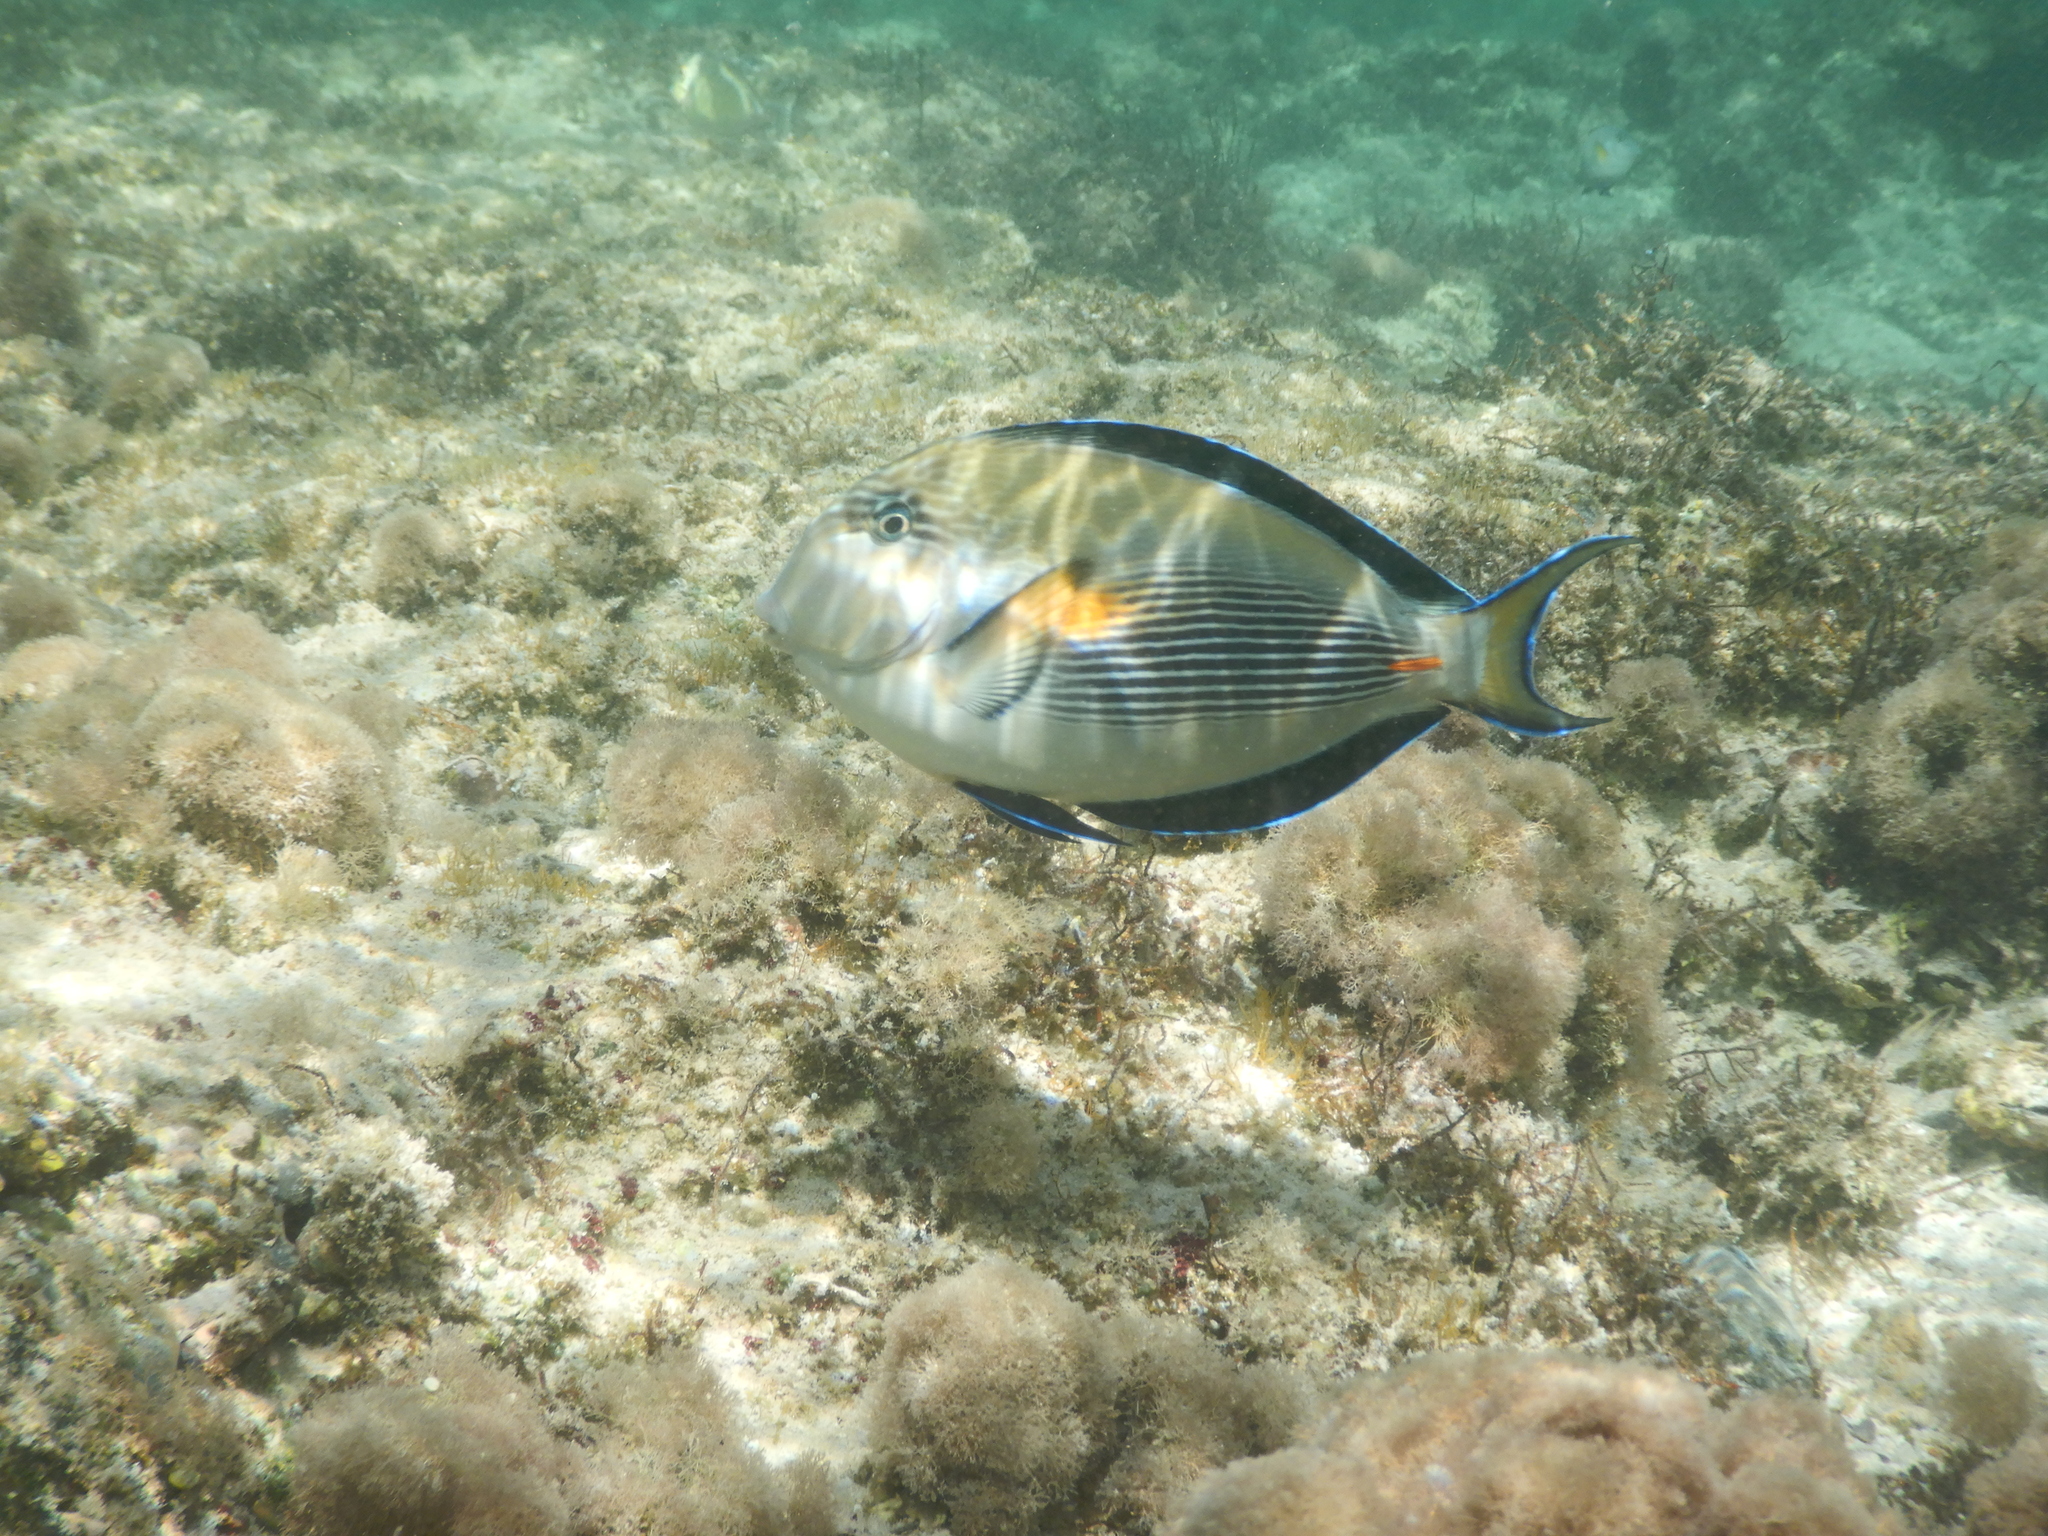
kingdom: Animalia
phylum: Chordata
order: Perciformes
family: Acanthuridae
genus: Acanthurus
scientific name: Acanthurus sohal
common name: Red sea surgeonfish
